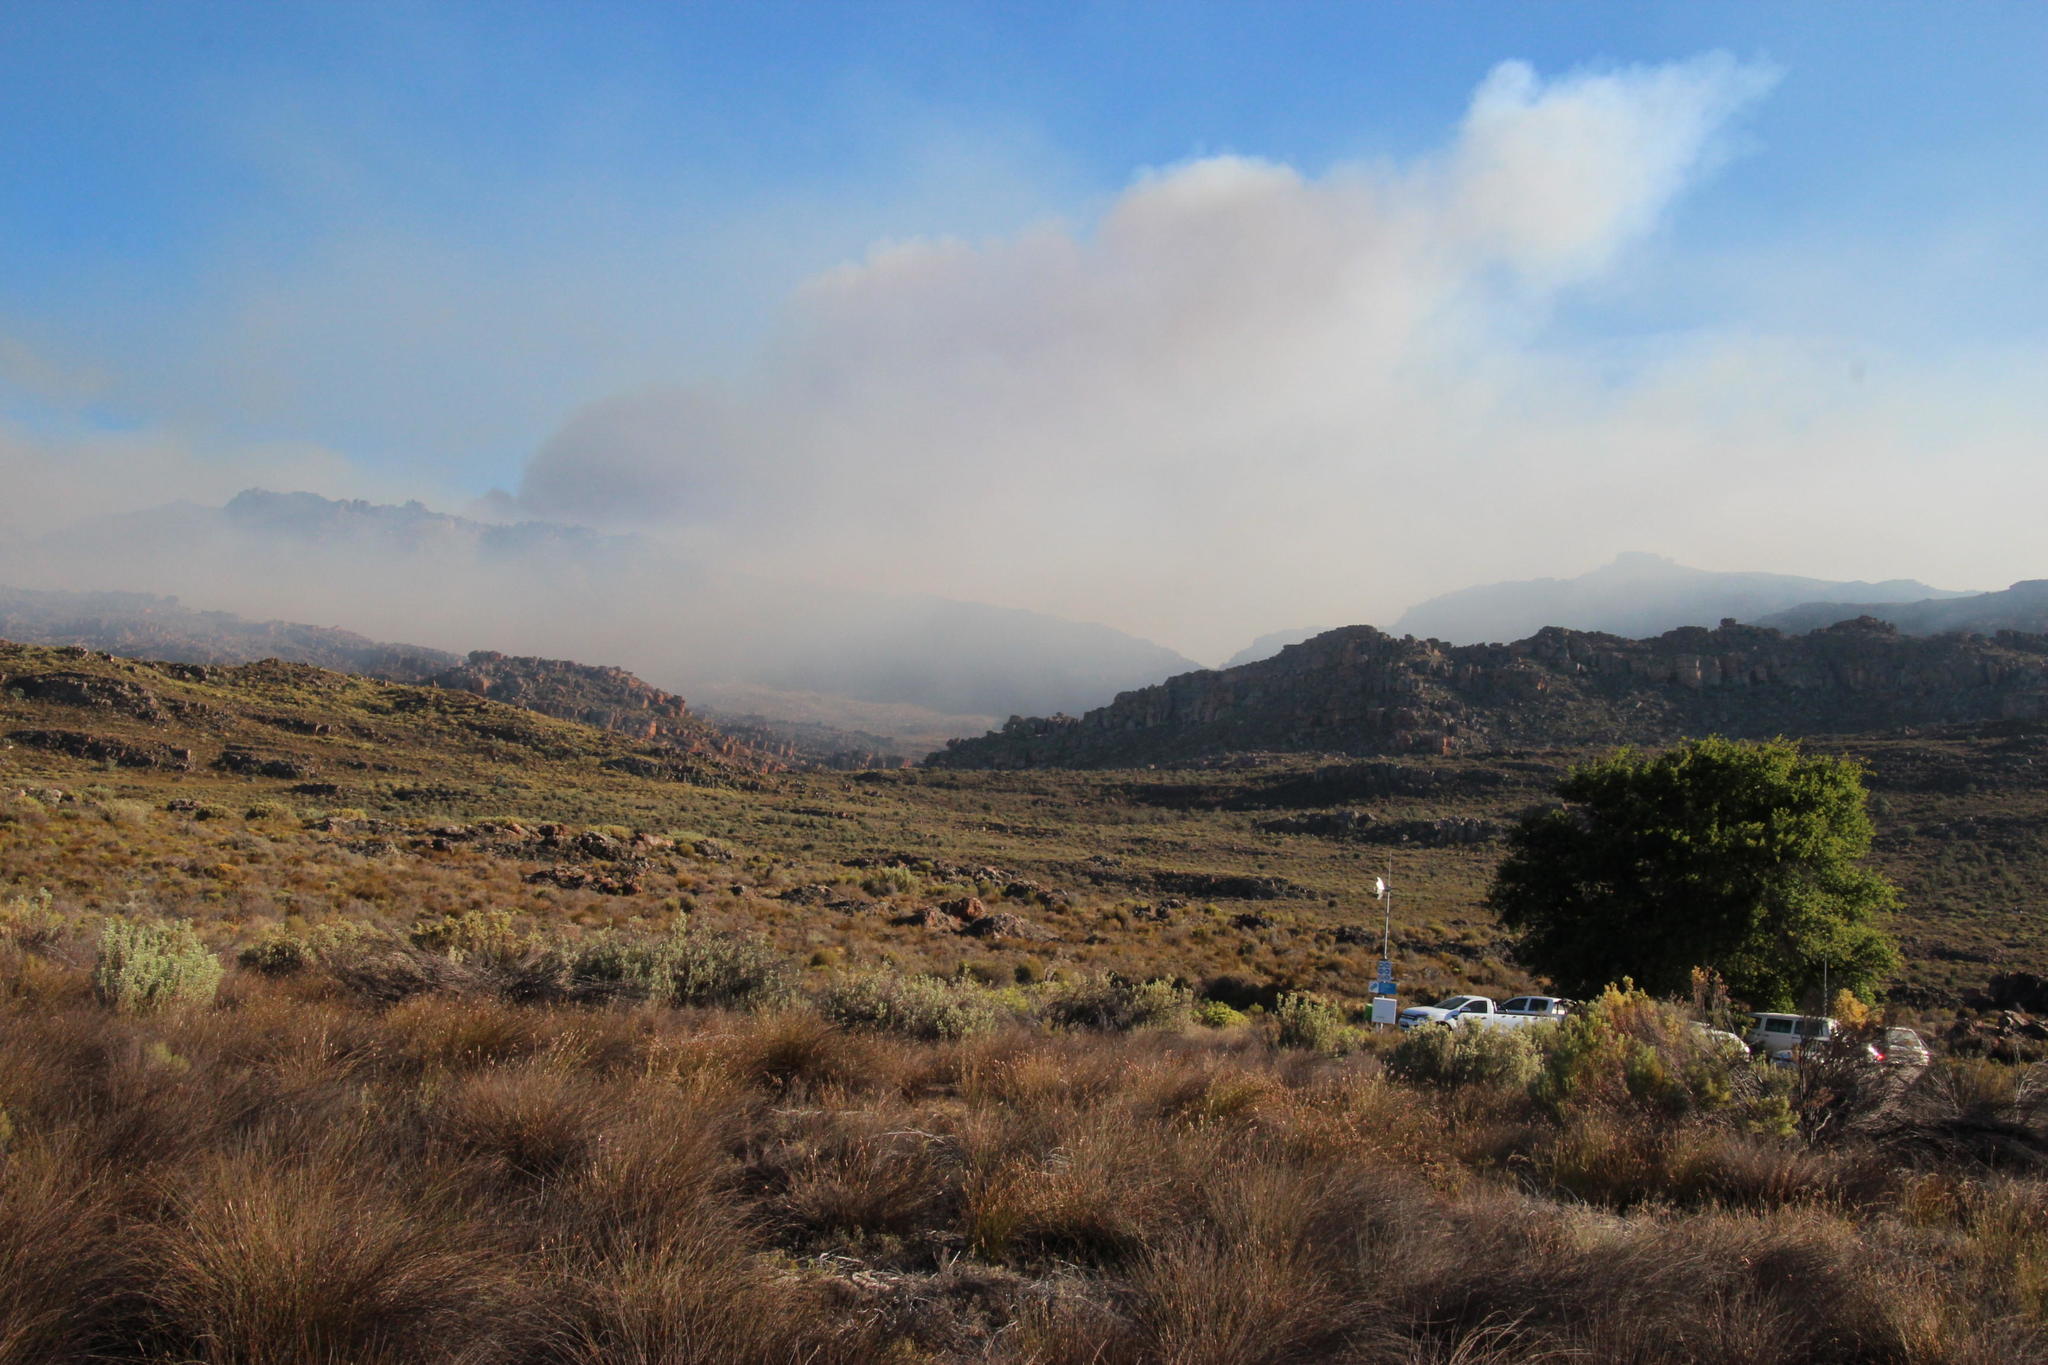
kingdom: Plantae
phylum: Tracheophyta
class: Magnoliopsida
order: Proteales
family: Proteaceae
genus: Leucadendron
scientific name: Leucadendron pubescens
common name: Grey conebush
